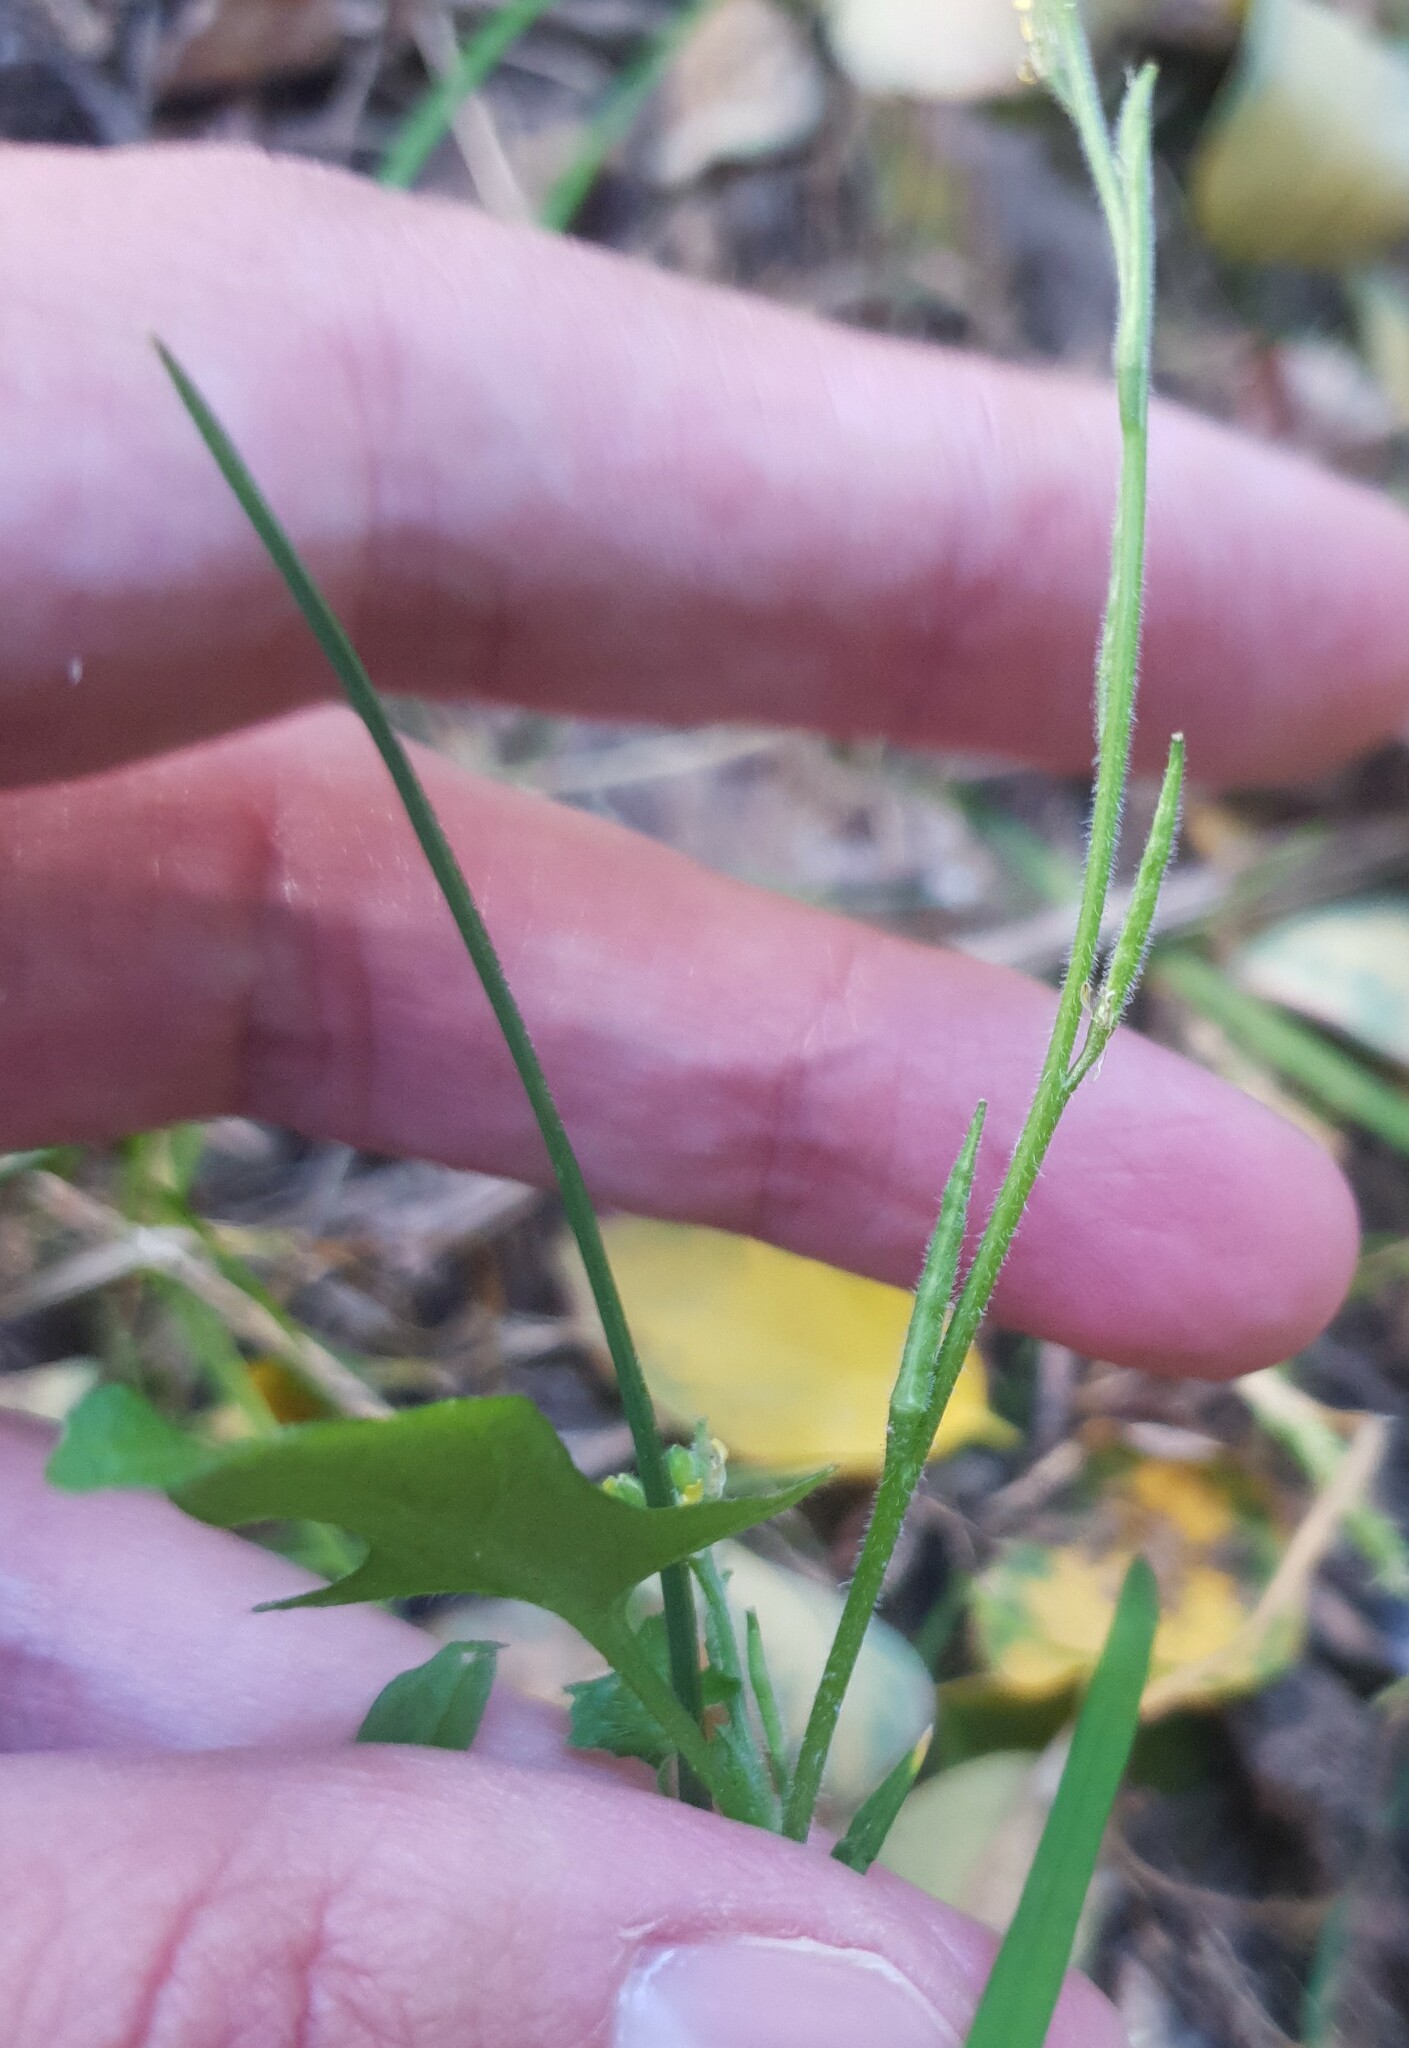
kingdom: Plantae
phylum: Tracheophyta
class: Magnoliopsida
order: Brassicales
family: Brassicaceae
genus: Sisymbrium
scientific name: Sisymbrium officinale
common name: Hedge mustard
